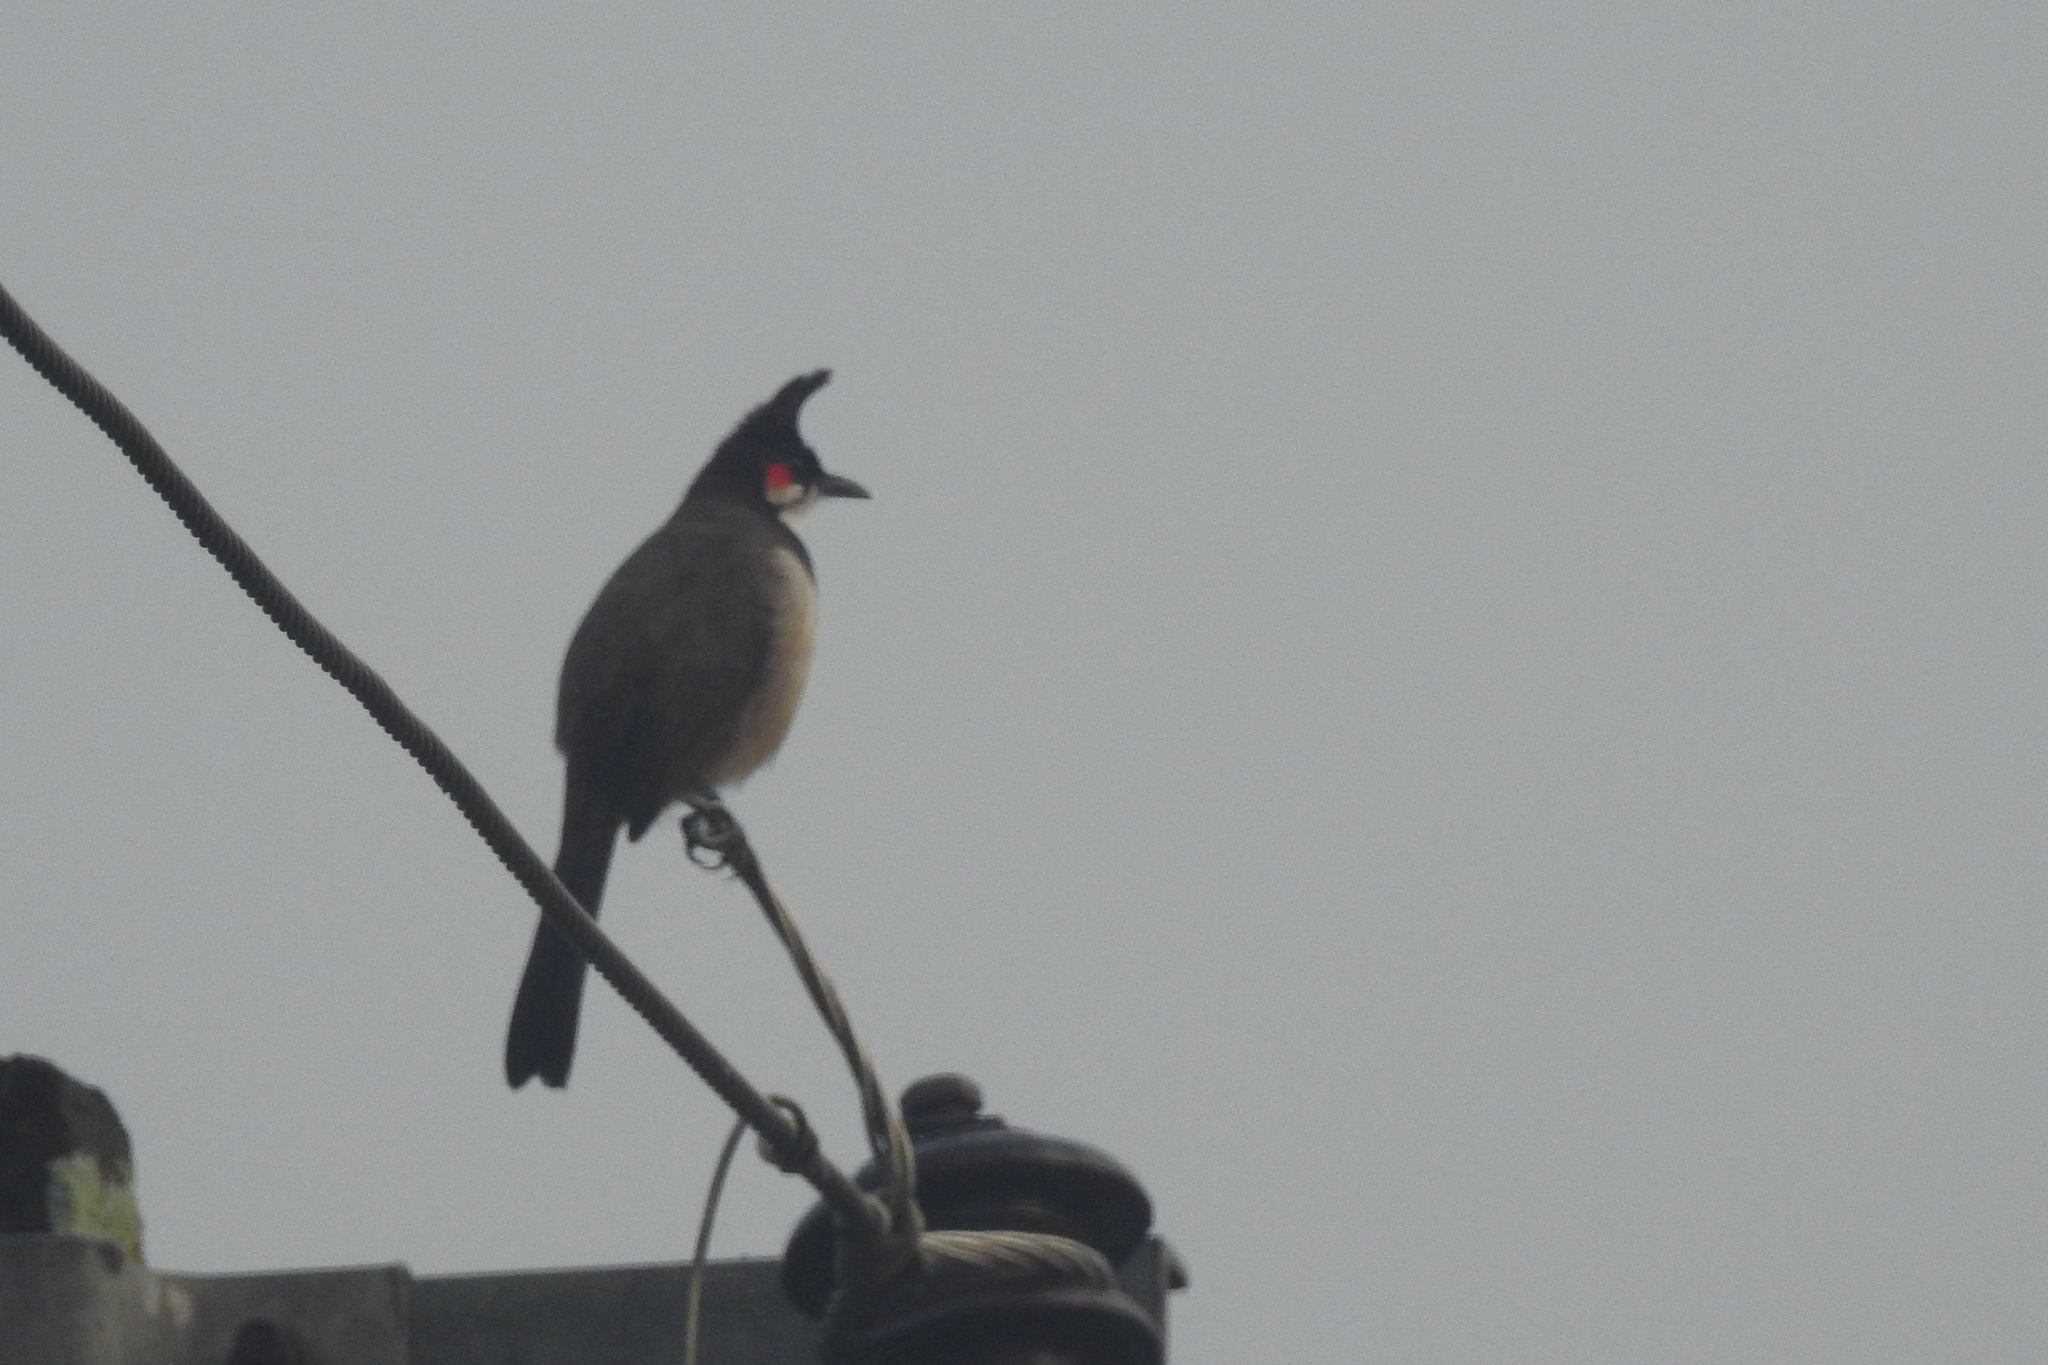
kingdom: Animalia
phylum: Chordata
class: Aves
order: Passeriformes
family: Pycnonotidae
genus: Pycnonotus
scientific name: Pycnonotus jocosus
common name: Red-whiskered bulbul
